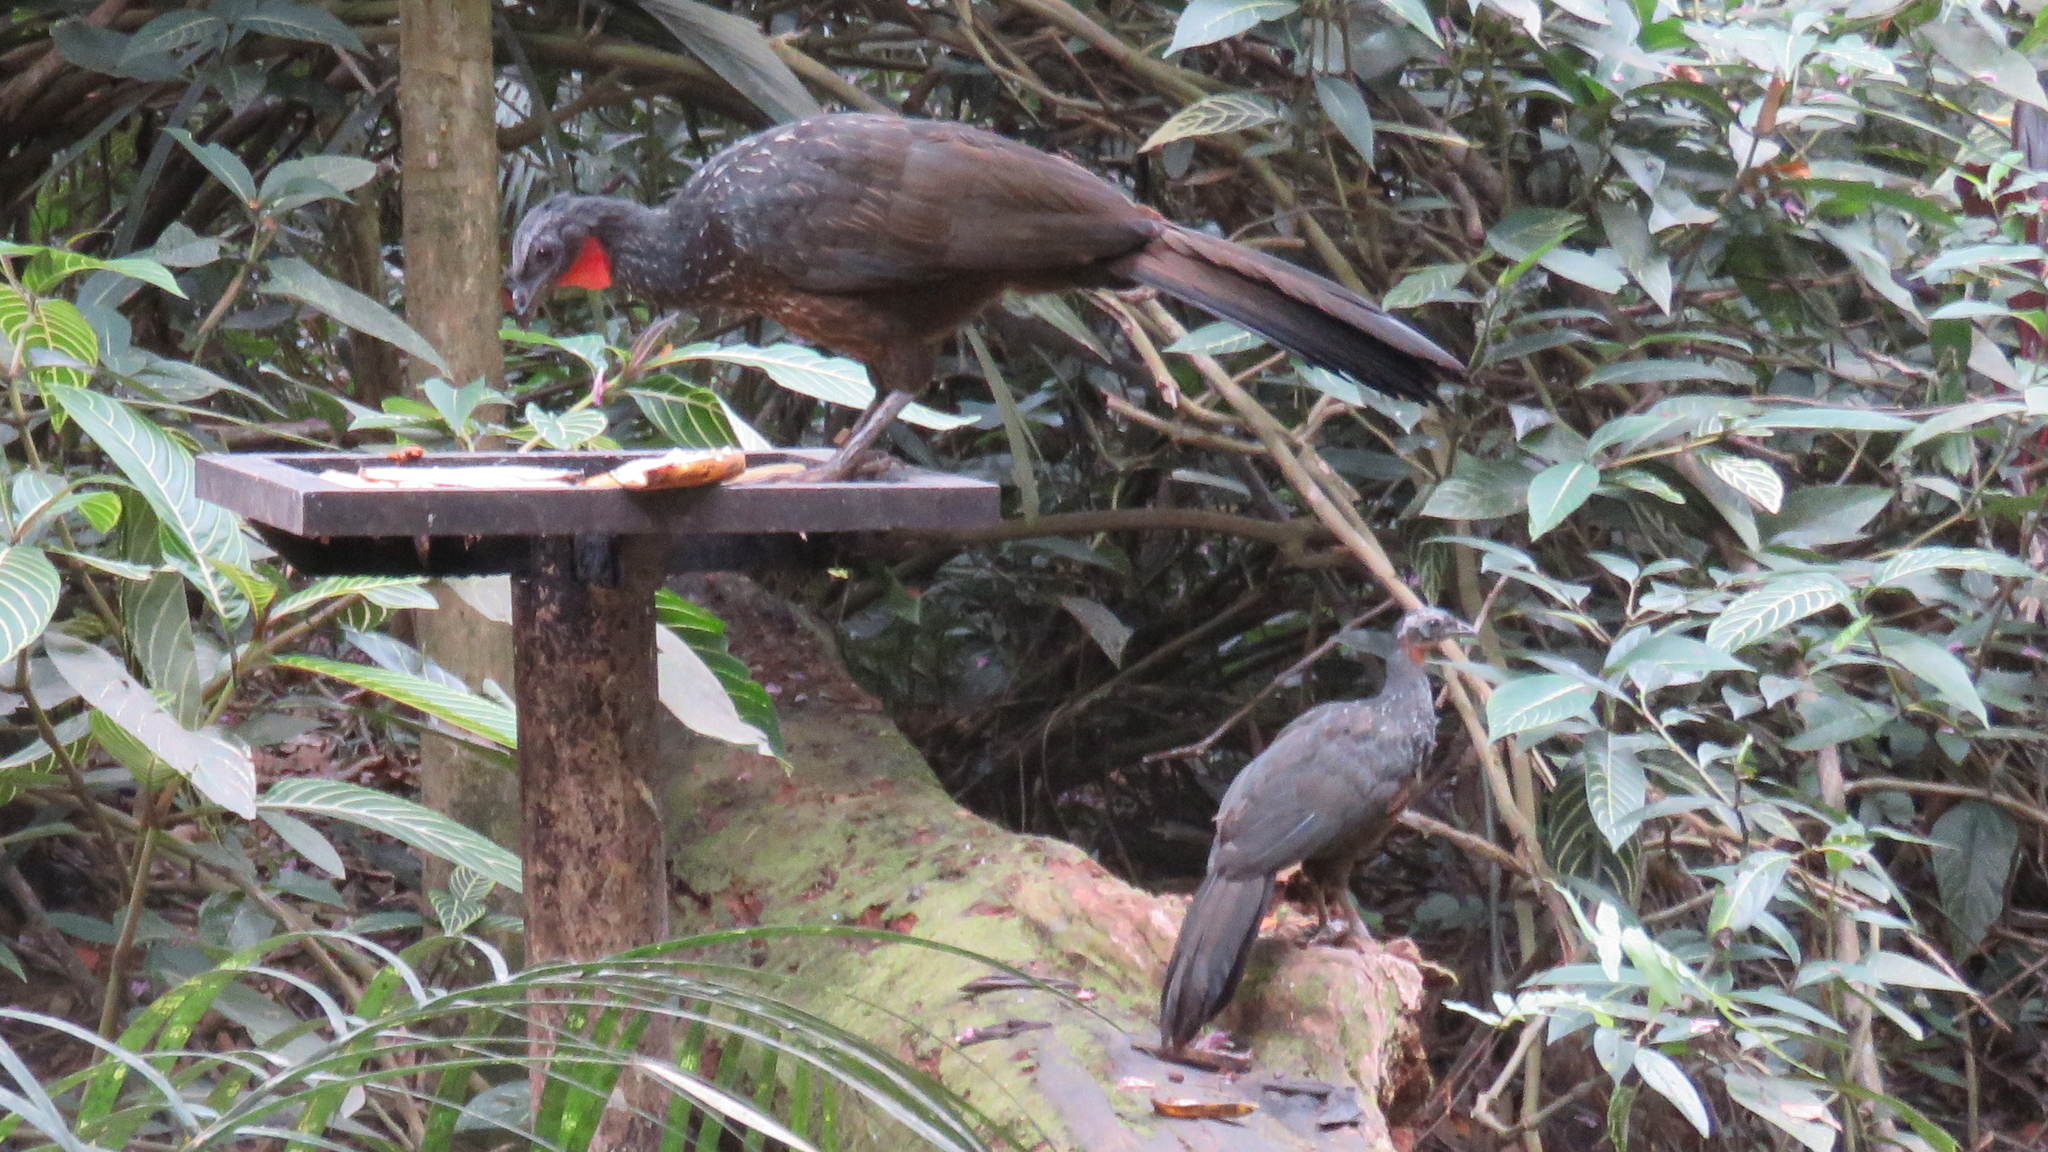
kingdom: Animalia
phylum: Chordata
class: Aves
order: Galliformes
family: Cracidae
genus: Penelope
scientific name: Penelope obscura
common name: Dusky-legged guan
